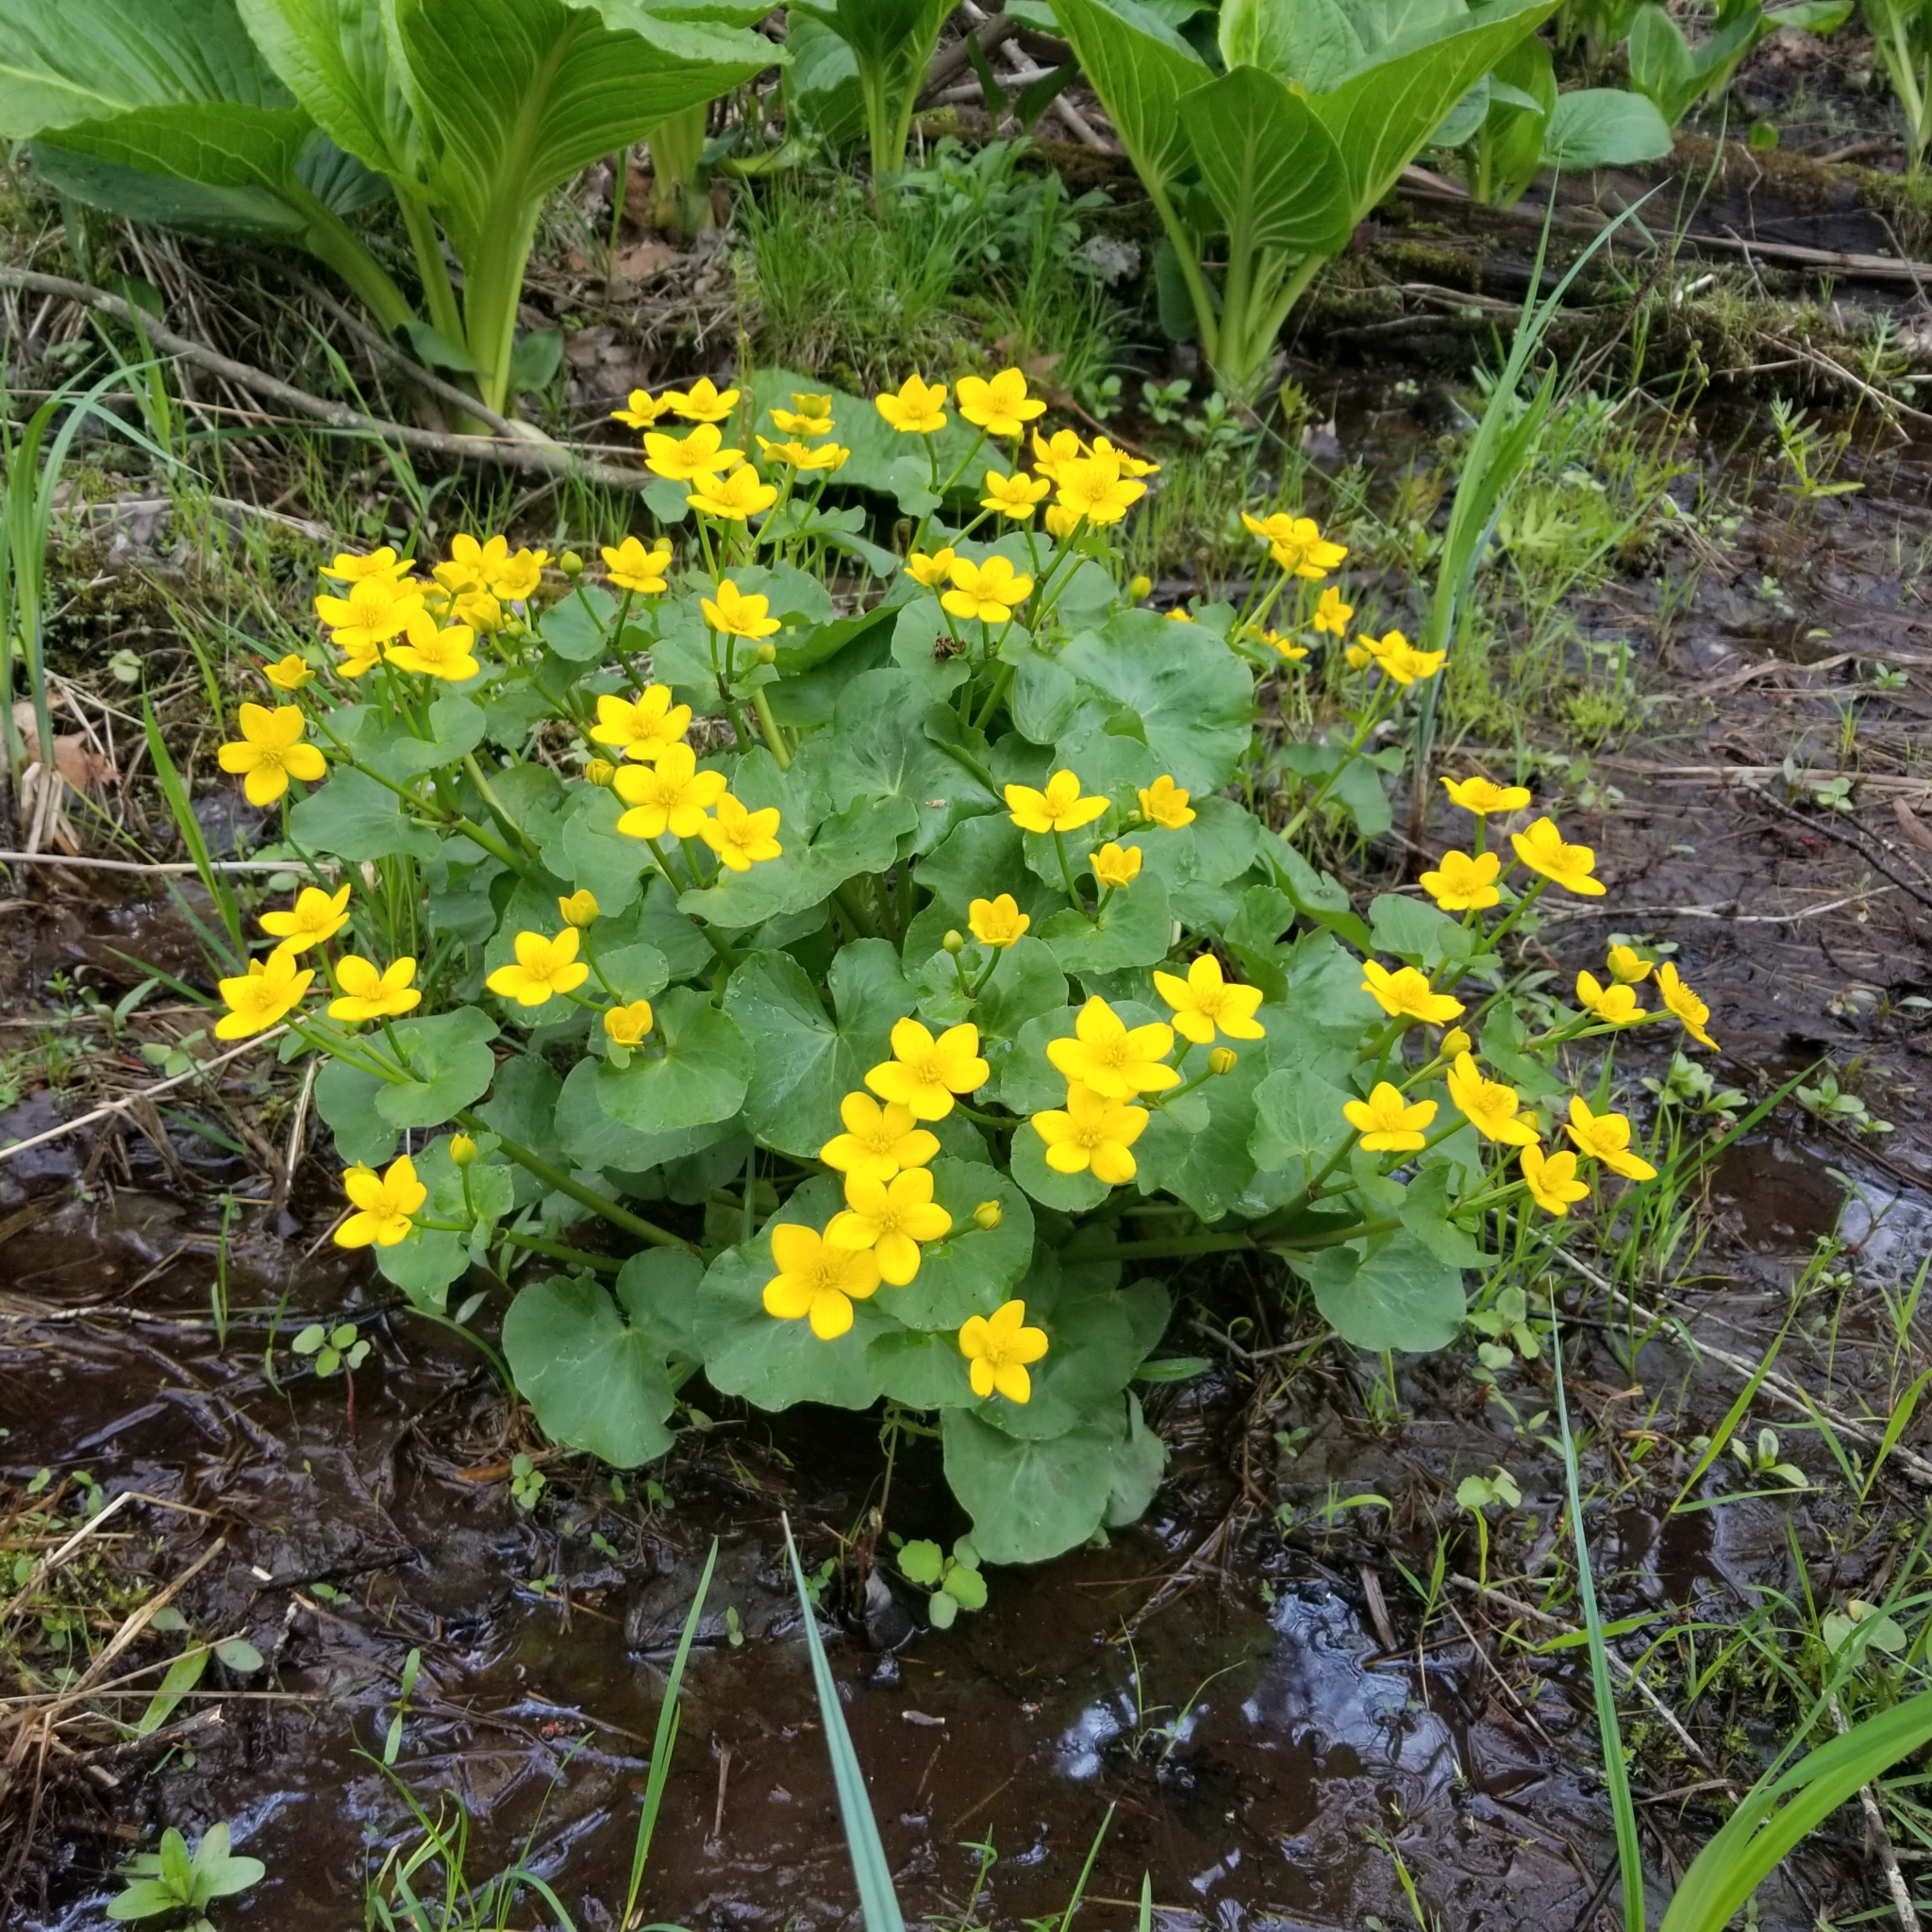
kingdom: Plantae
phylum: Tracheophyta
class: Magnoliopsida
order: Ranunculales
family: Ranunculaceae
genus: Caltha
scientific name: Caltha palustris
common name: Marsh marigold
